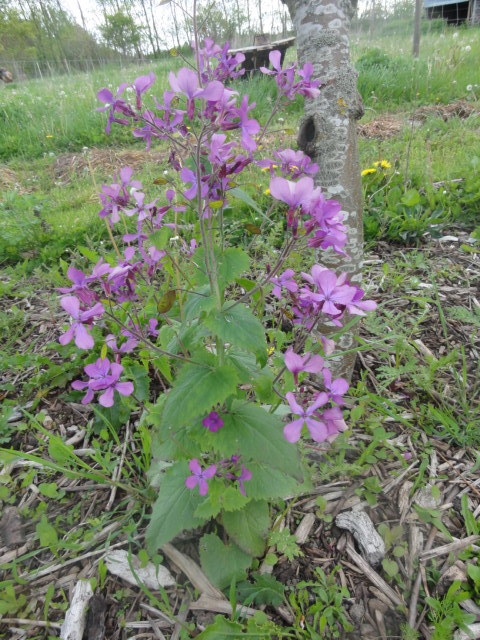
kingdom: Plantae
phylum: Tracheophyta
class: Magnoliopsida
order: Brassicales
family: Brassicaceae
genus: Lunaria
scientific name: Lunaria annua
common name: Honesty
